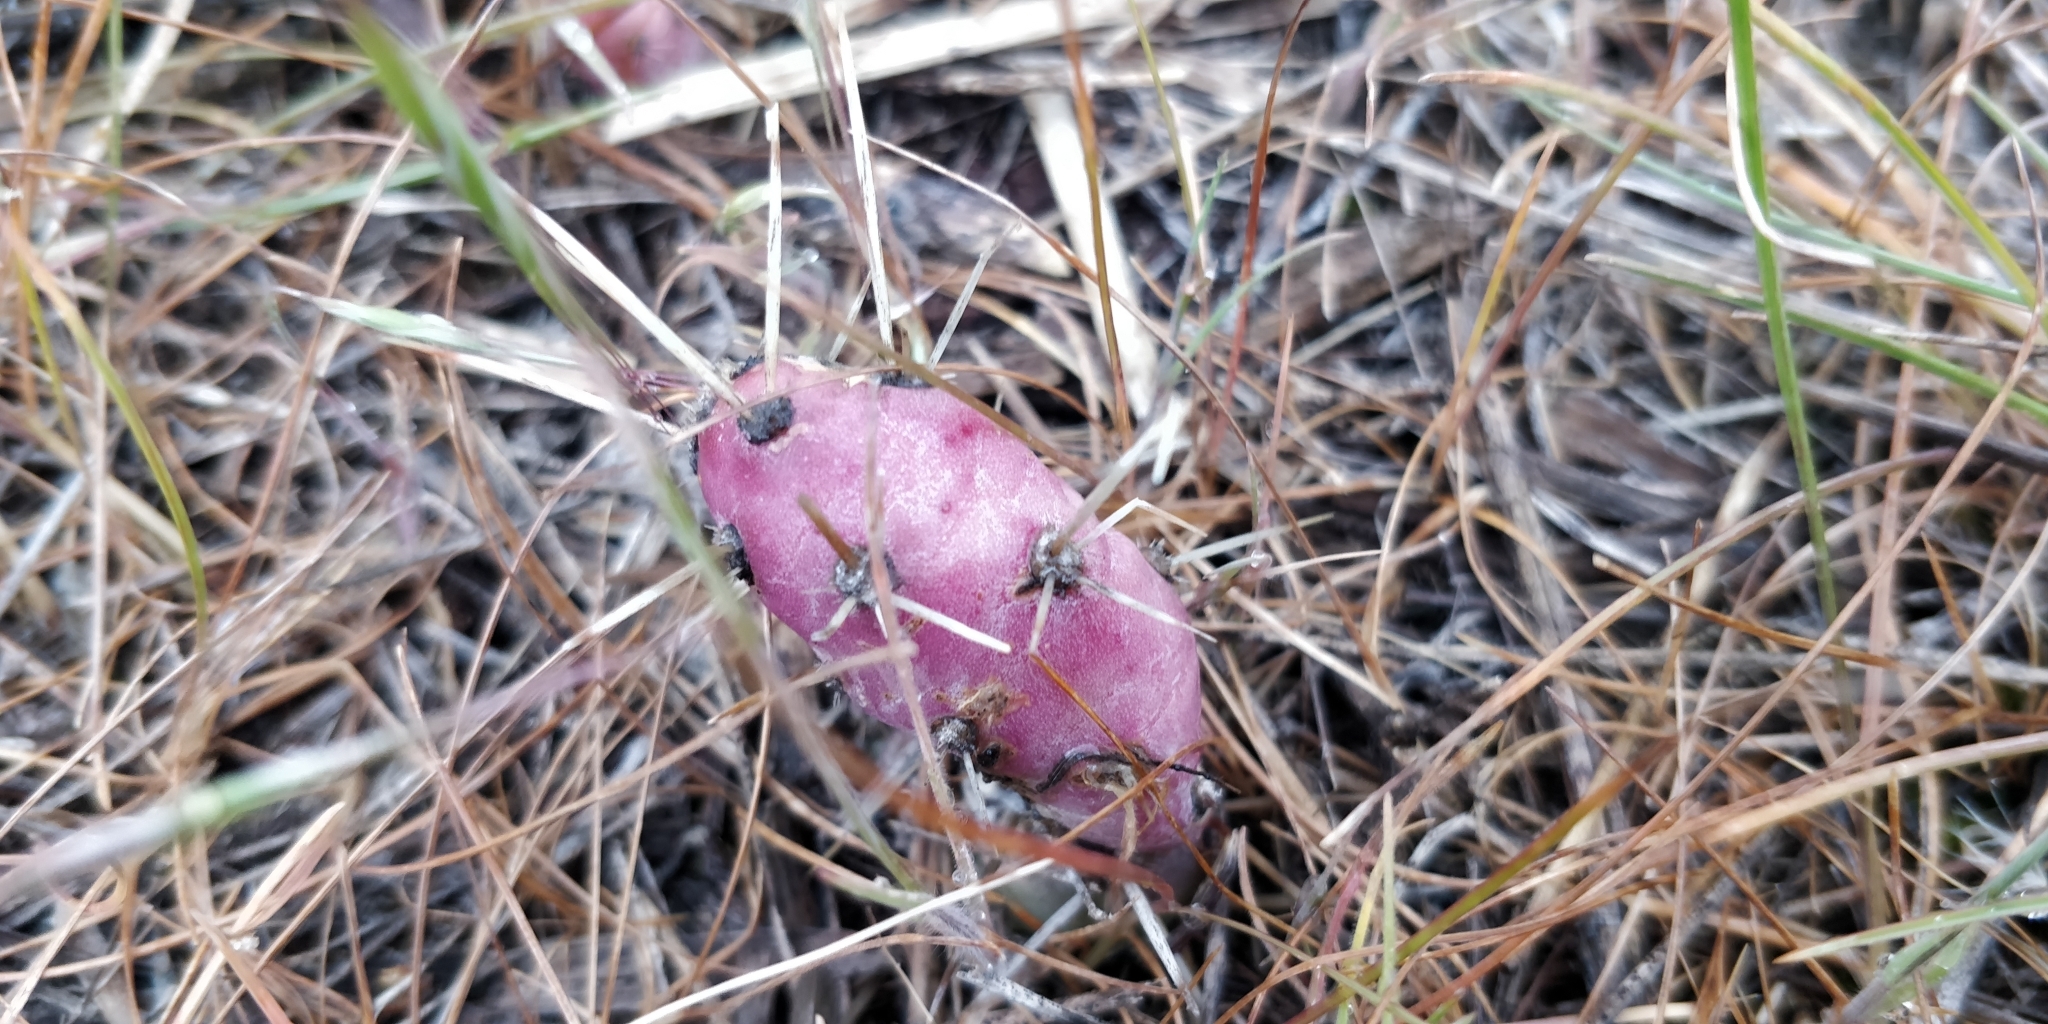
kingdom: Plantae
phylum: Tracheophyta
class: Magnoliopsida
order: Caryophyllales
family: Cactaceae
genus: Opuntia
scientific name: Opuntia fragilis
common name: Brittle cactus
